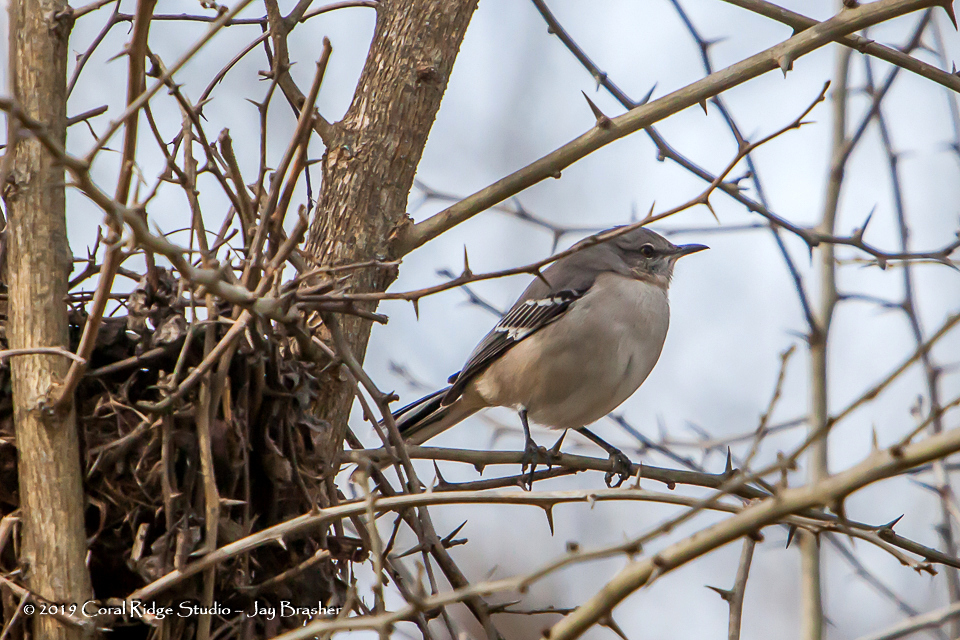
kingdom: Animalia
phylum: Chordata
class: Aves
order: Passeriformes
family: Mimidae
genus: Mimus
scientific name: Mimus polyglottos
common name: Northern mockingbird
